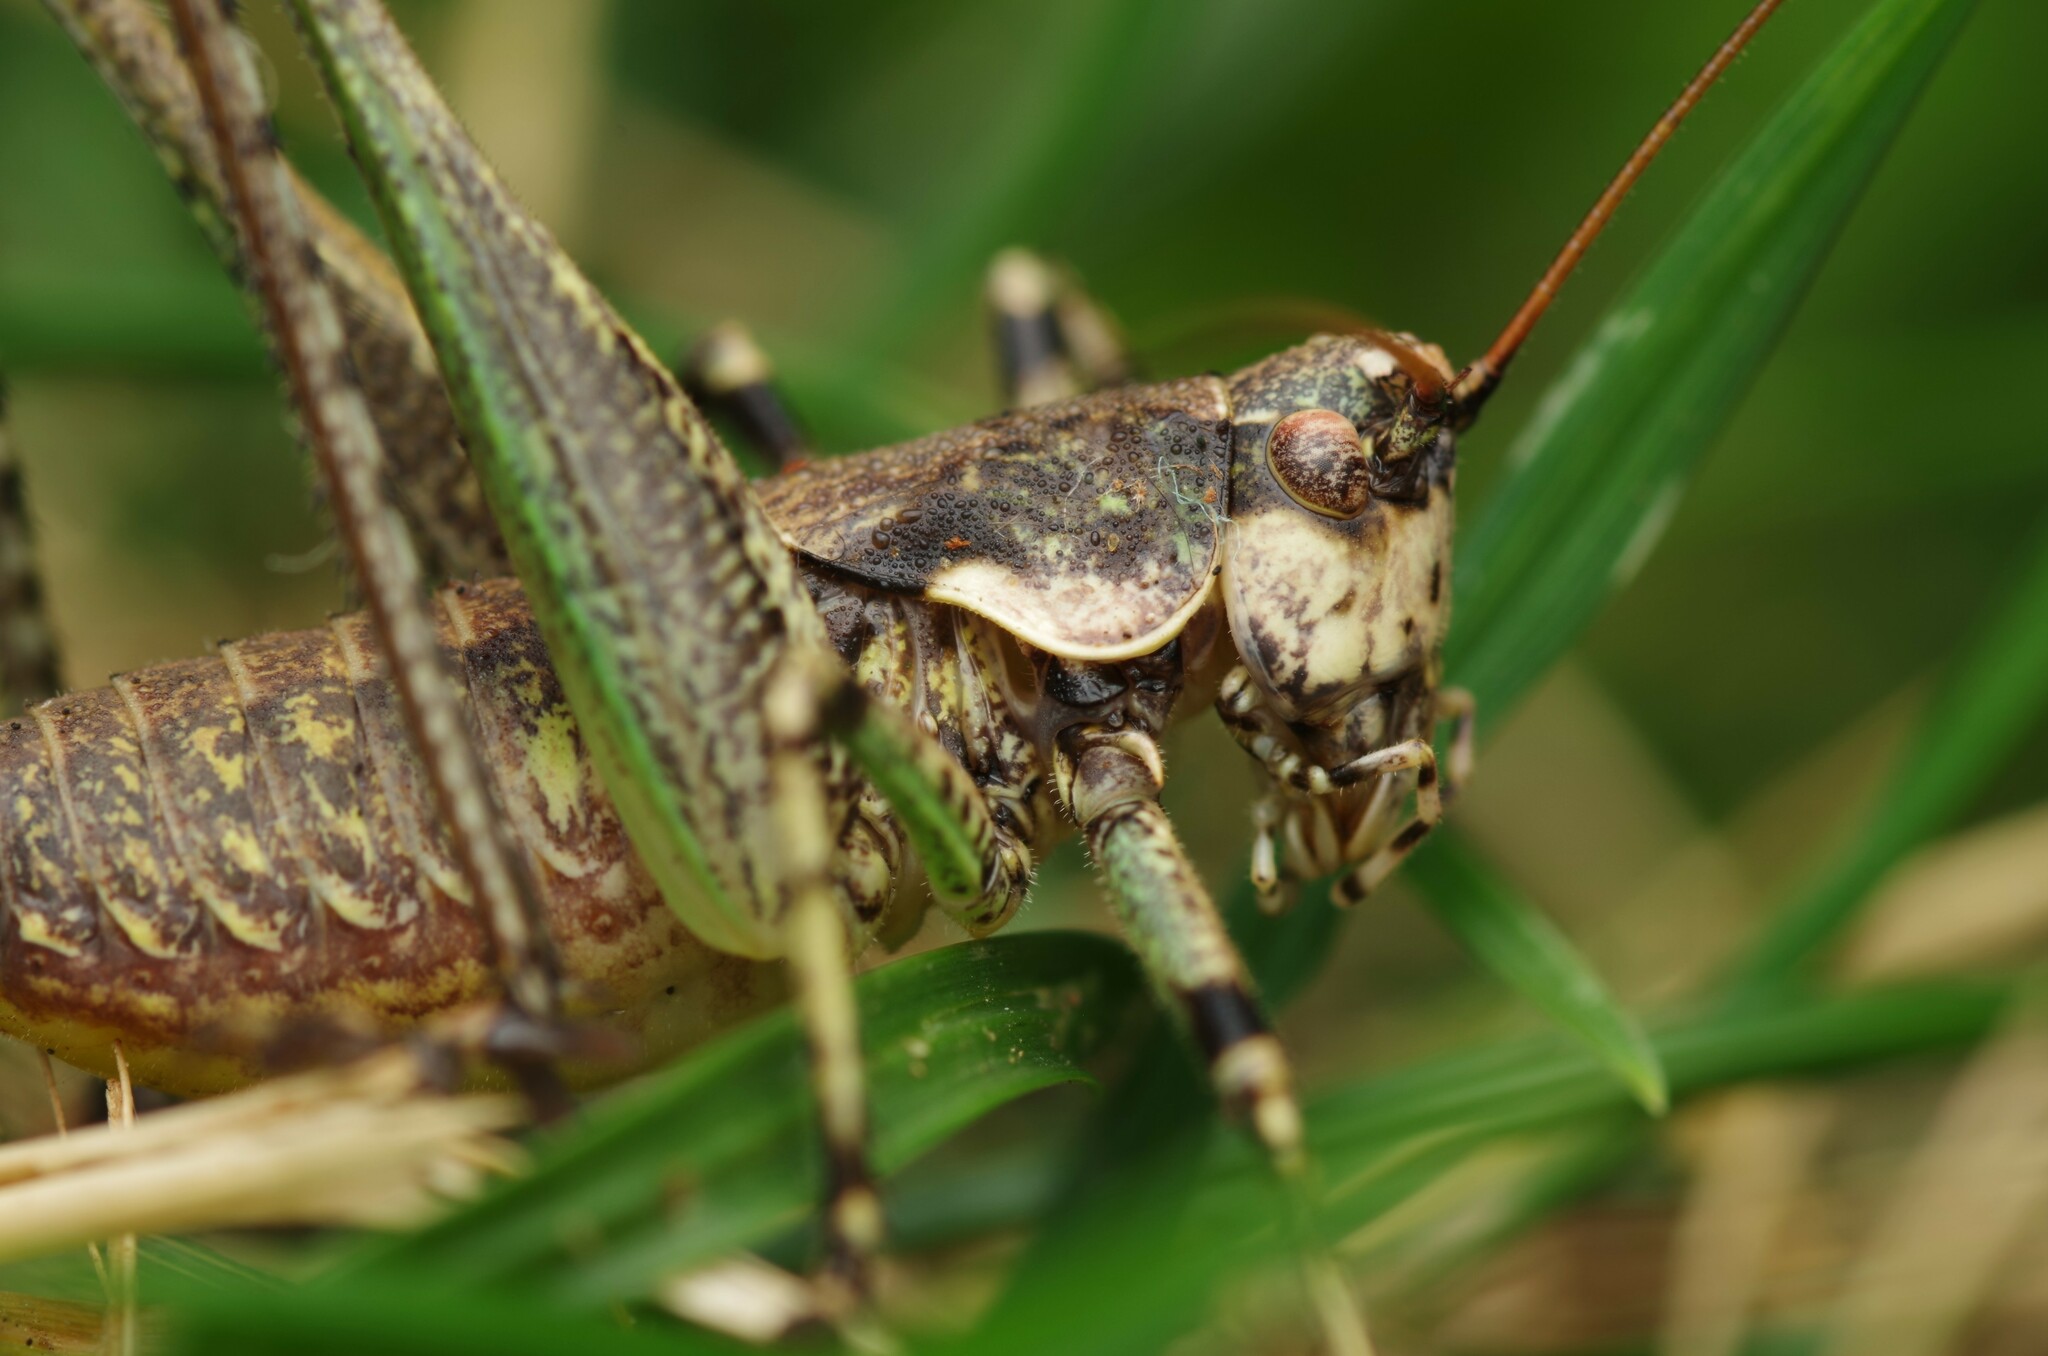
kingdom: Animalia
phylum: Arthropoda
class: Insecta
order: Orthoptera
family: Tettigoniidae
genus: Rhacocleis
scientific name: Rhacocleis annulata
